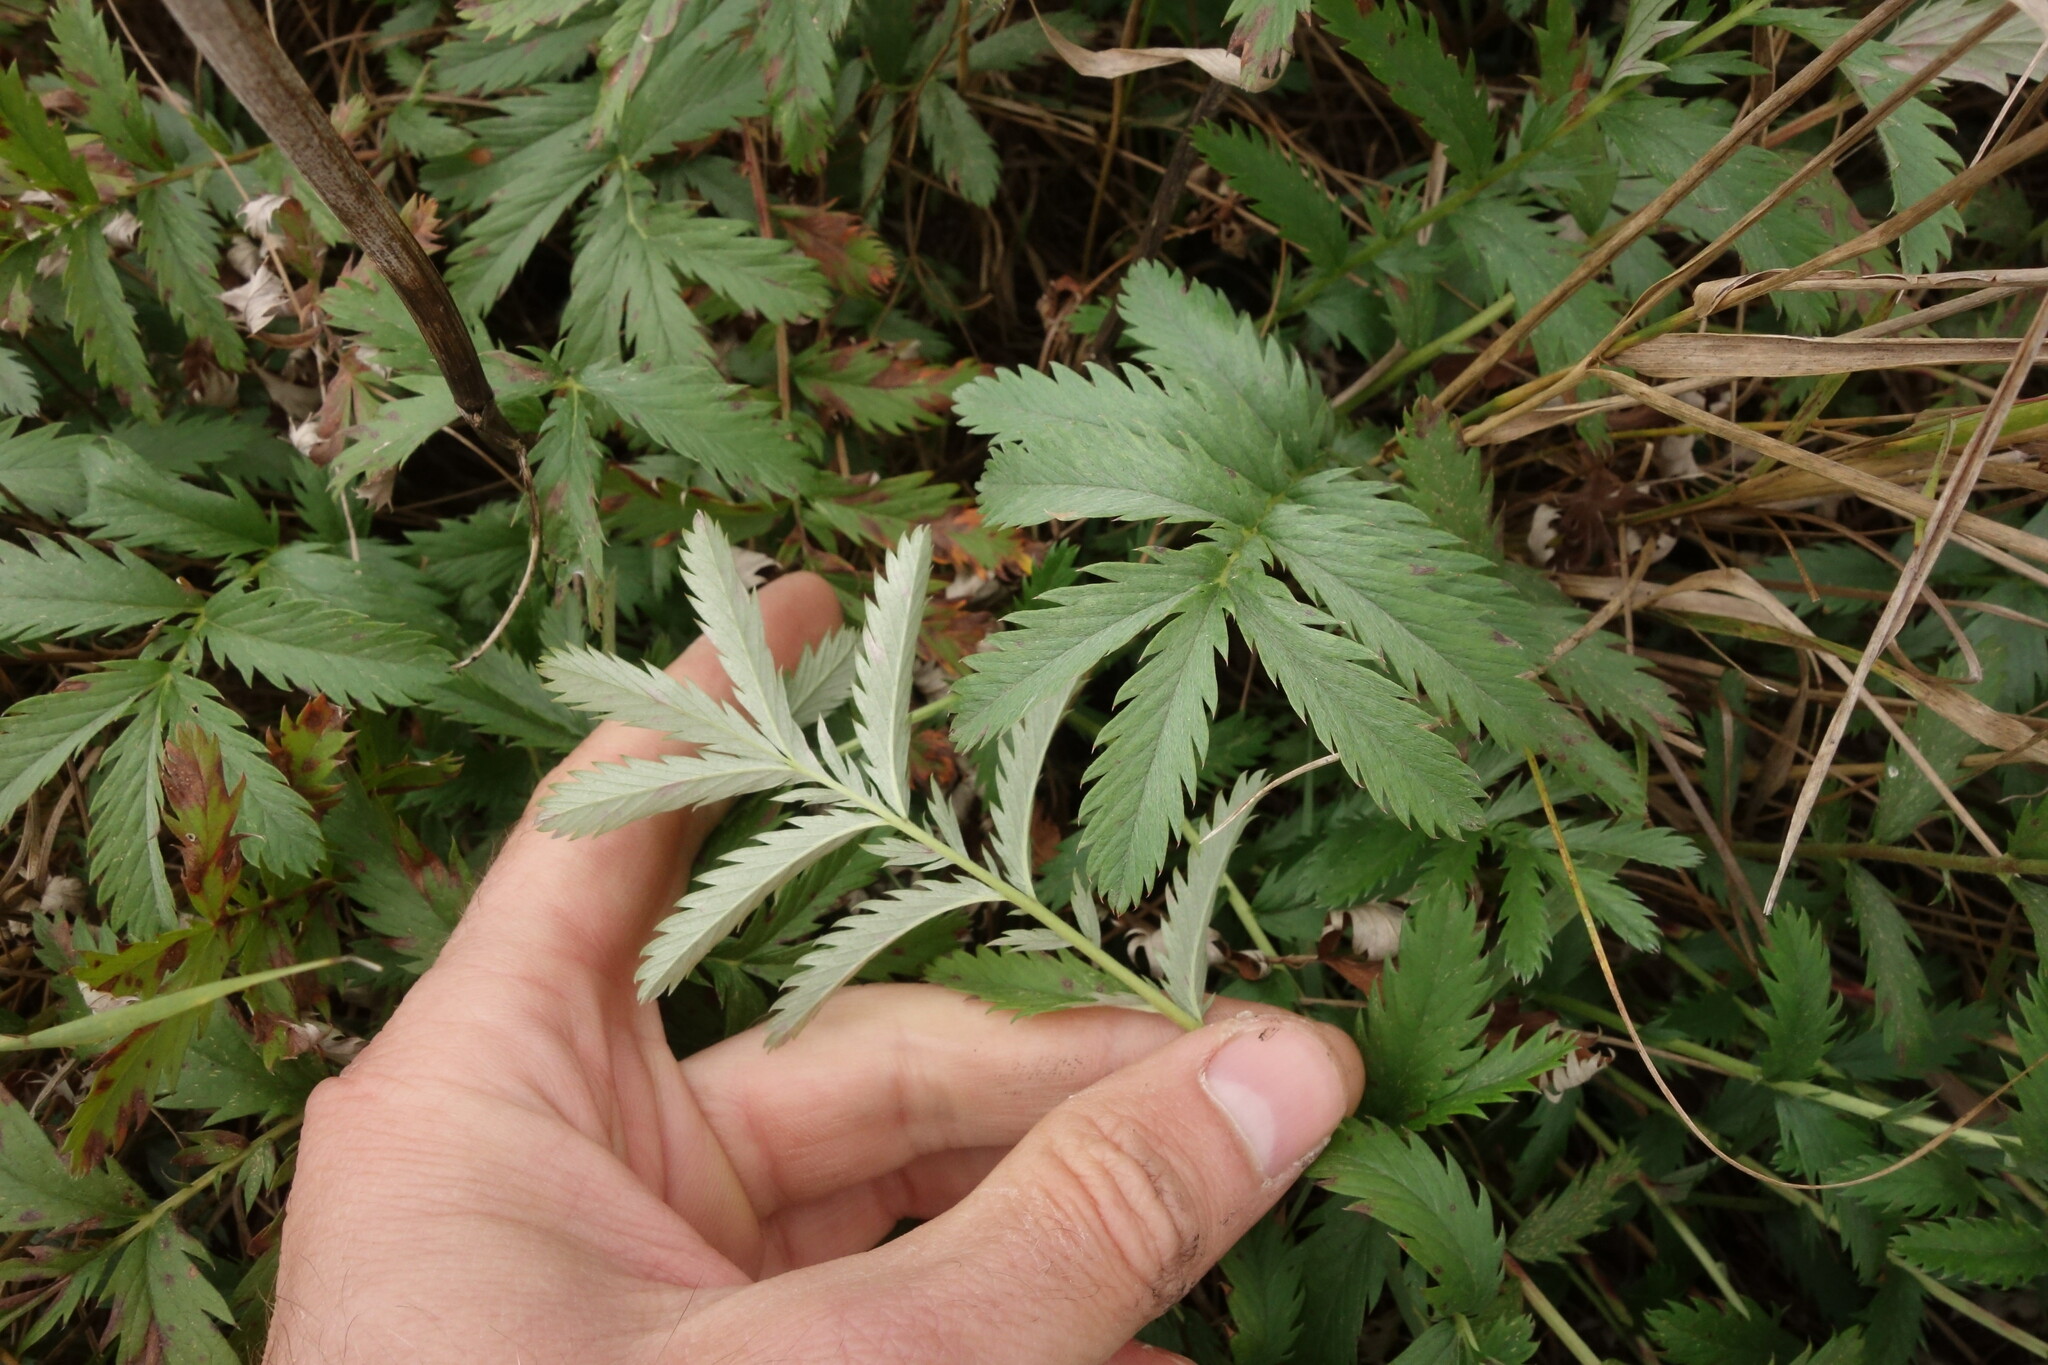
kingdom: Plantae
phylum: Tracheophyta
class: Magnoliopsida
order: Rosales
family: Rosaceae
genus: Argentina
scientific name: Argentina anserina
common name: Common silverweed
